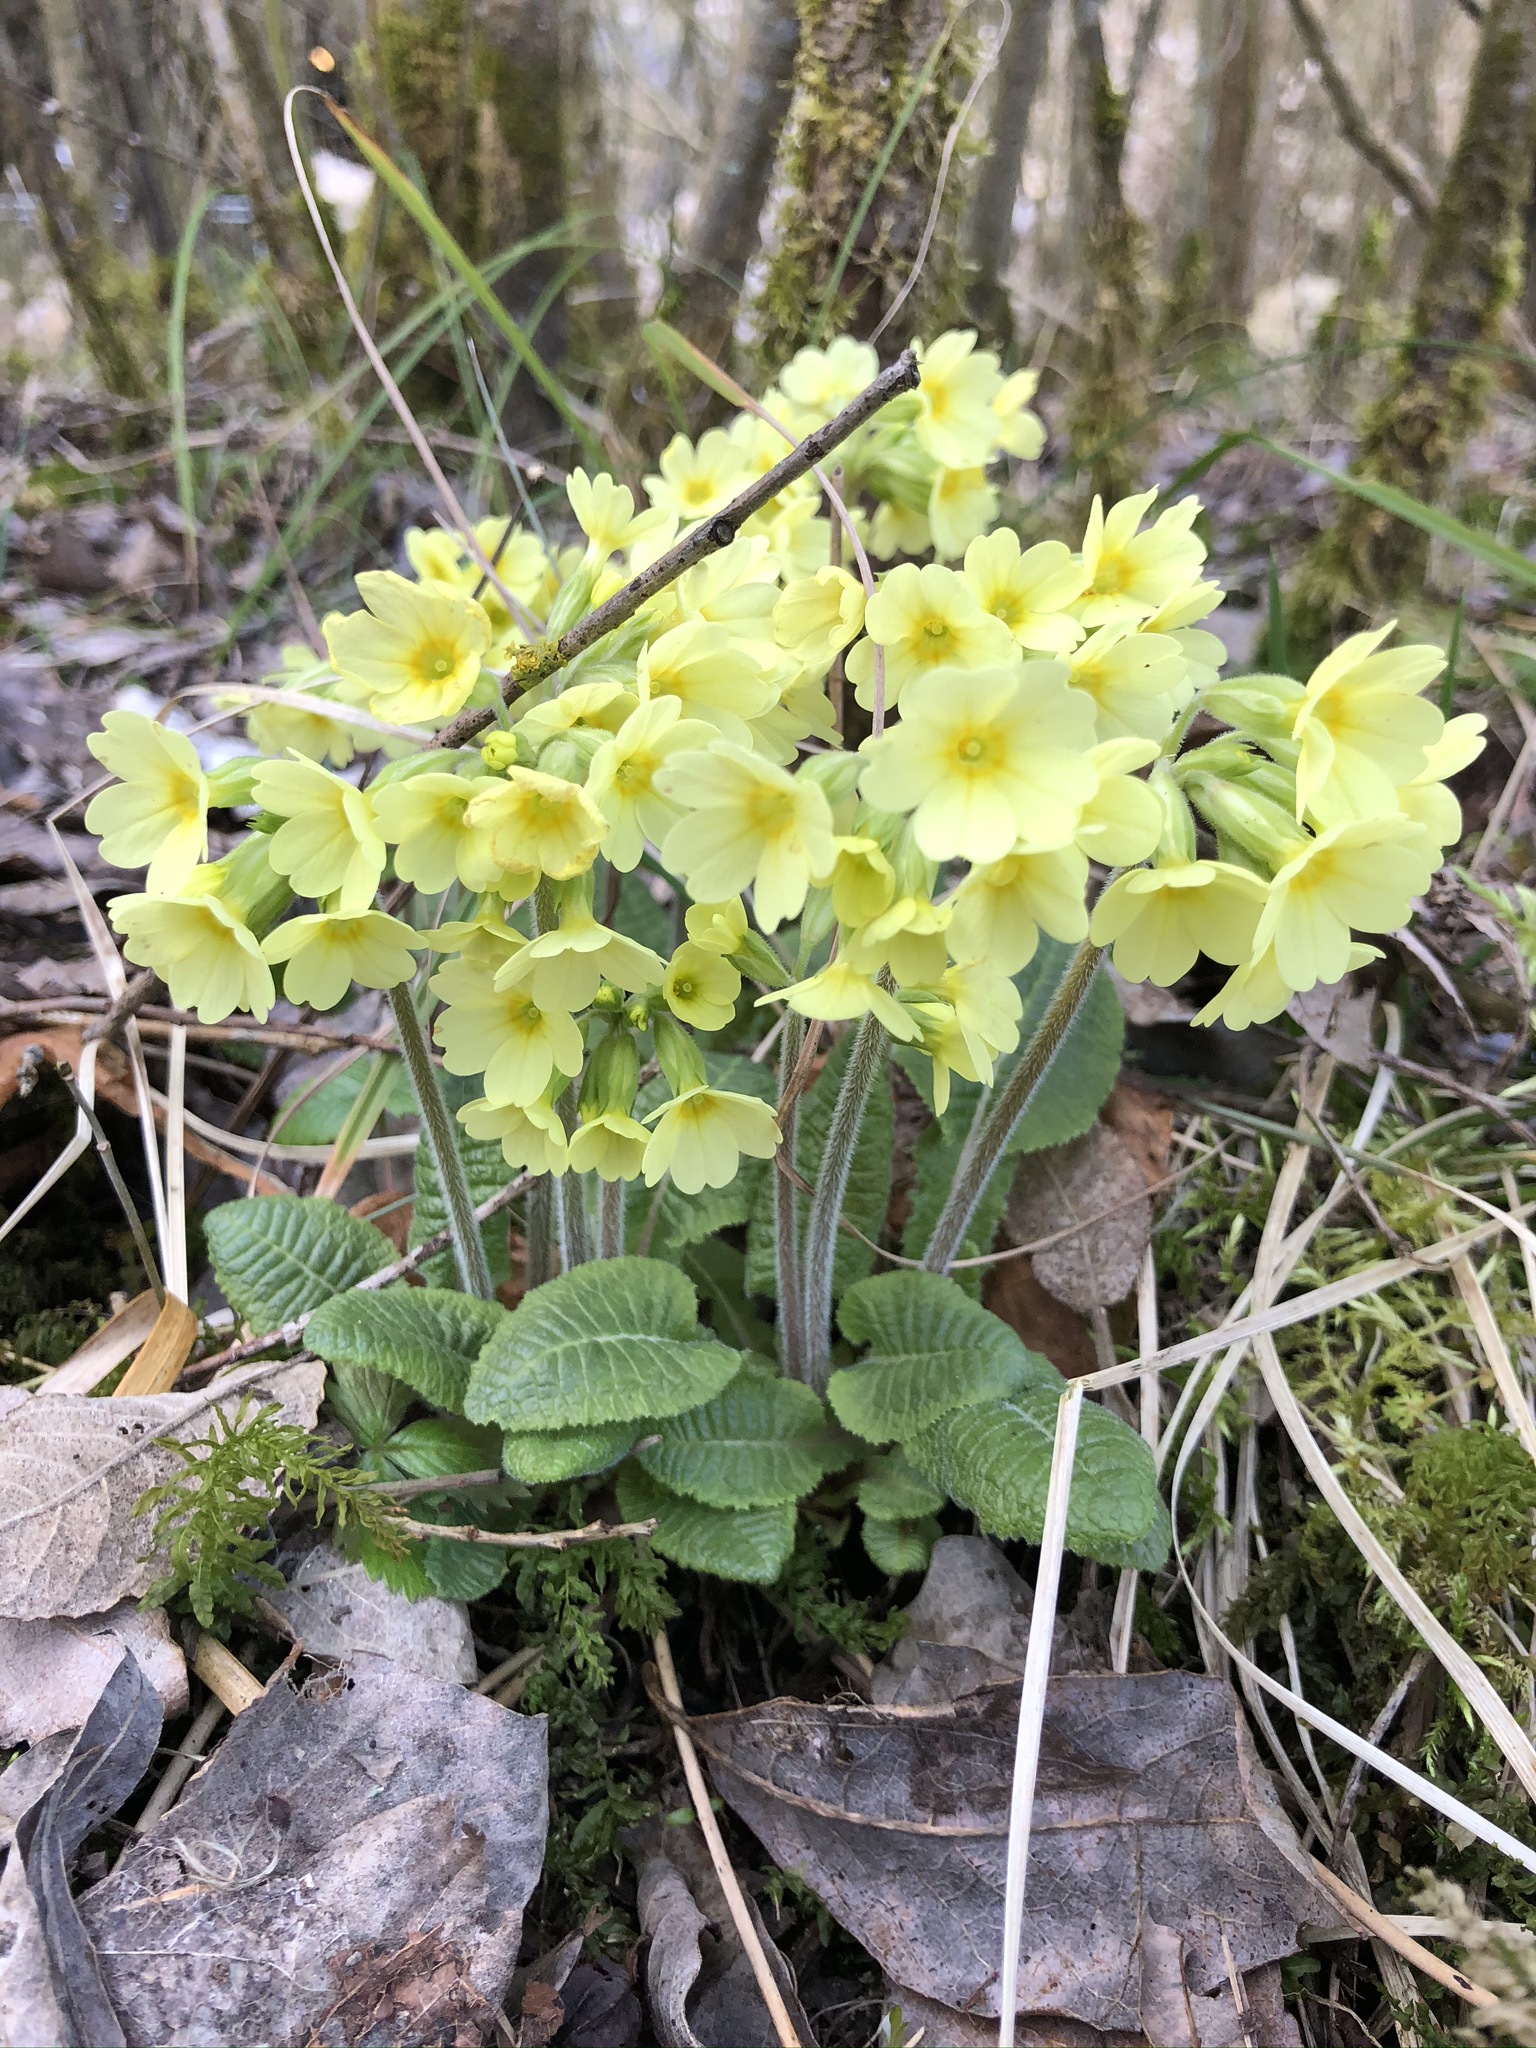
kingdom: Plantae
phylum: Tracheophyta
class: Magnoliopsida
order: Ericales
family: Primulaceae
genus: Primula
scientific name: Primula elatior
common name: Oxlip
